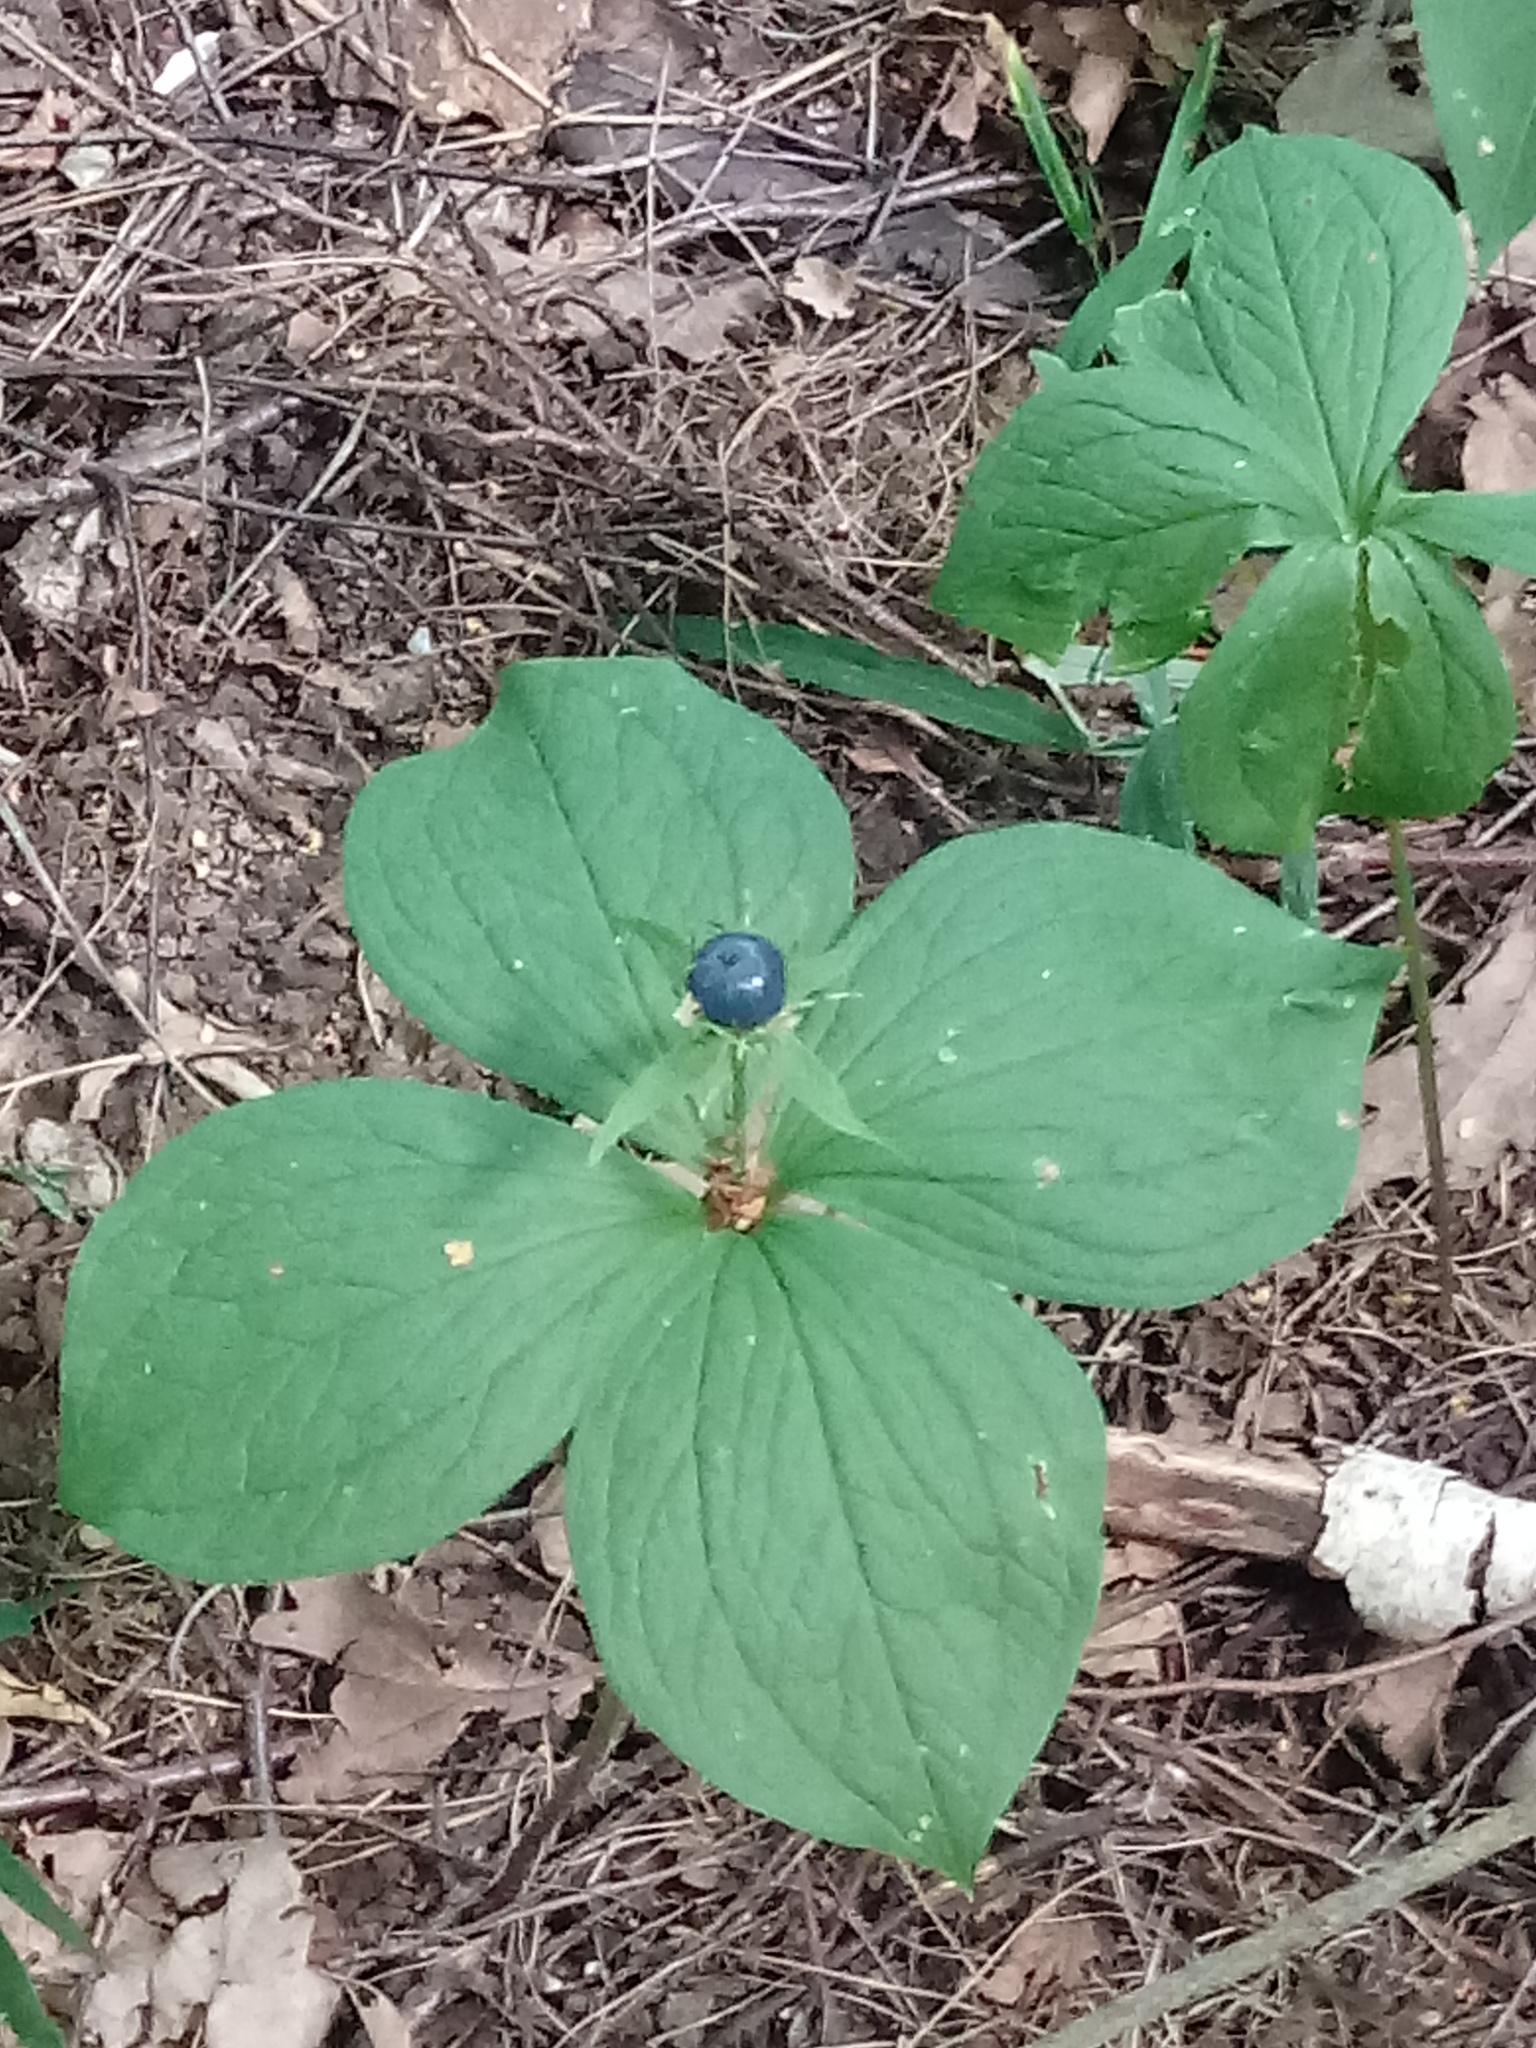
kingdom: Plantae
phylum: Tracheophyta
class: Liliopsida
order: Liliales
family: Melanthiaceae
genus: Paris
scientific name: Paris quadrifolia
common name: Herb-paris
